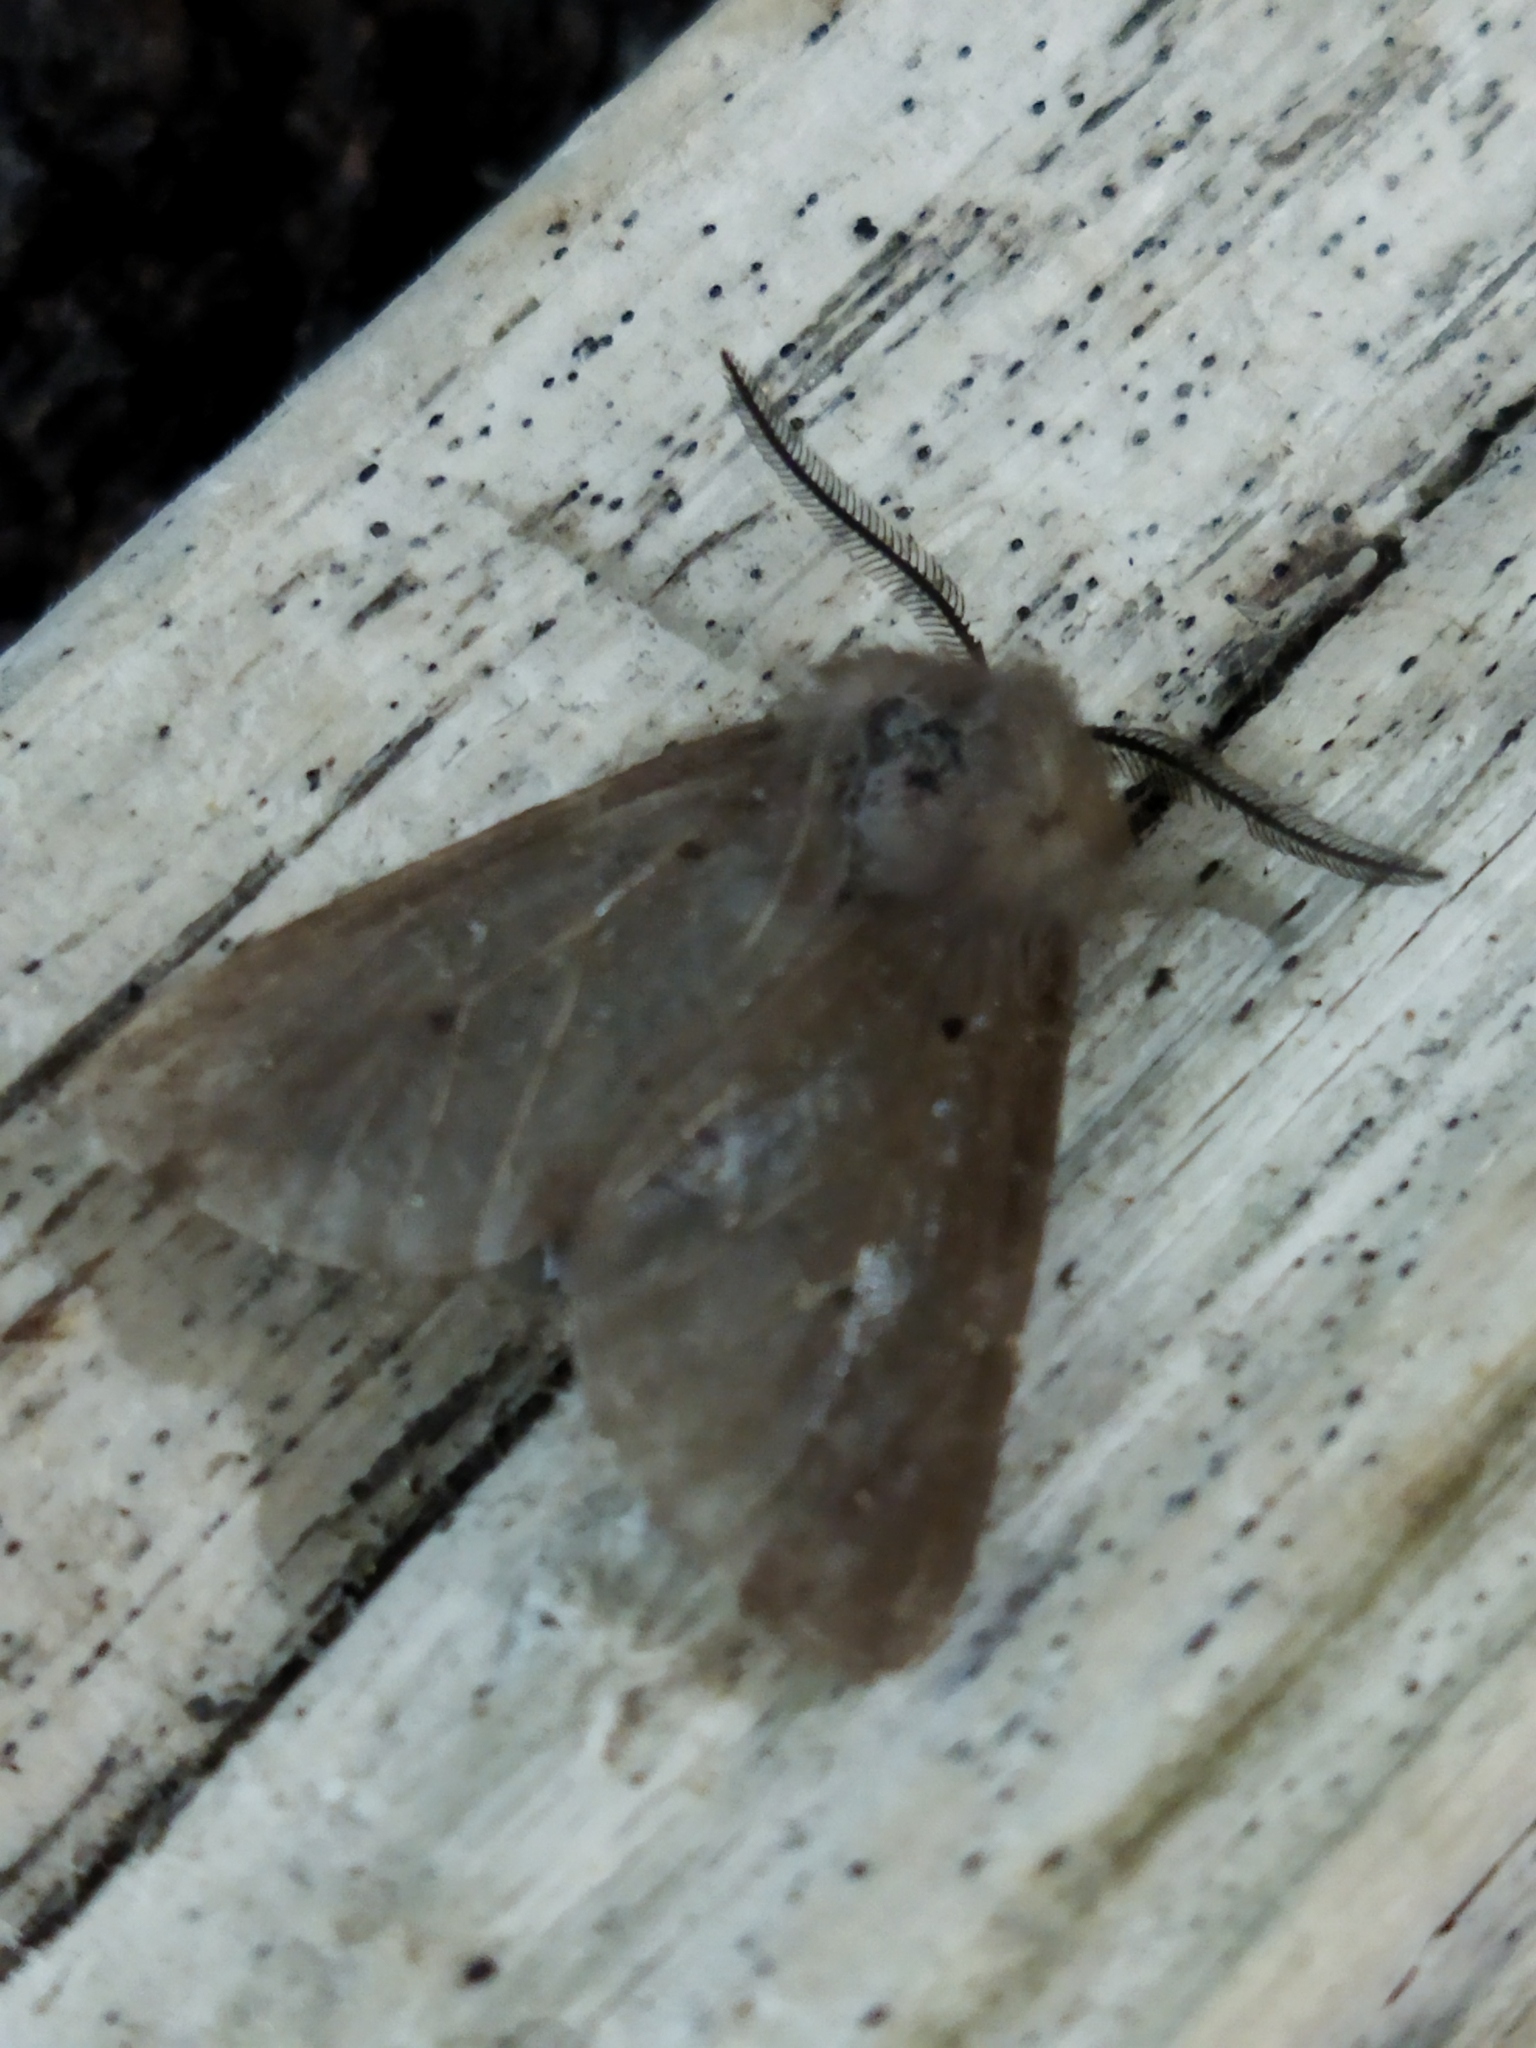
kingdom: Animalia
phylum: Arthropoda
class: Insecta
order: Lepidoptera
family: Erebidae
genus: Diaphora
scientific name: Diaphora mendica
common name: Muslin moth
